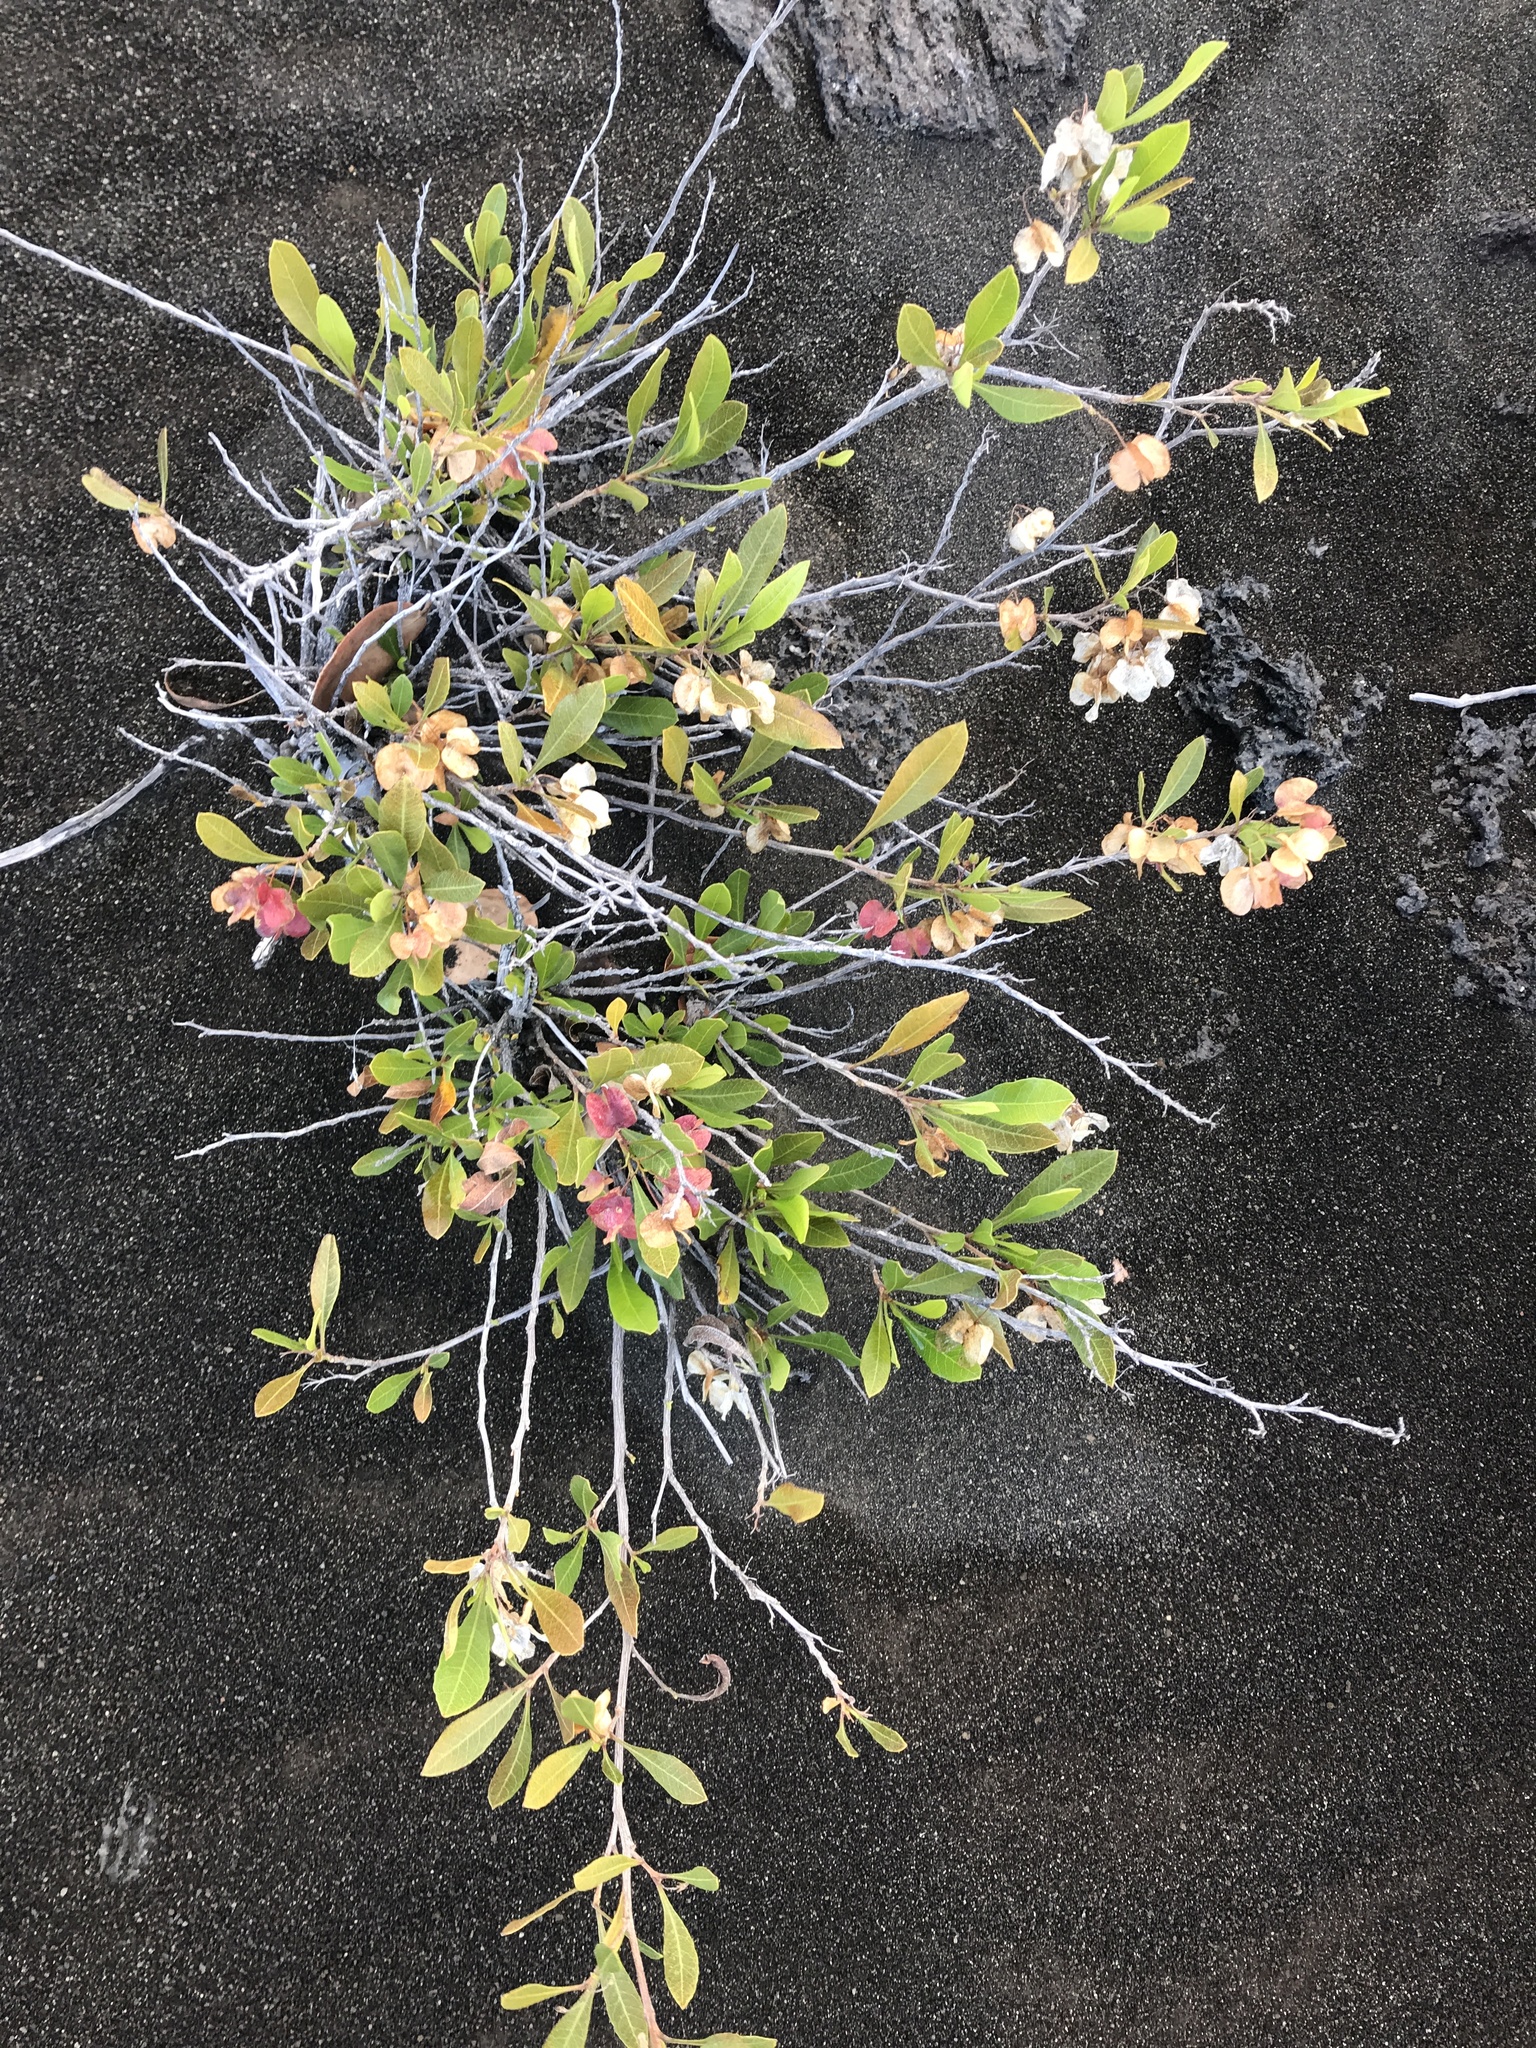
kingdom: Plantae
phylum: Tracheophyta
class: Magnoliopsida
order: Sapindales
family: Sapindaceae
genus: Dodonaea
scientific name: Dodonaea viscosa
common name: Hopbush
